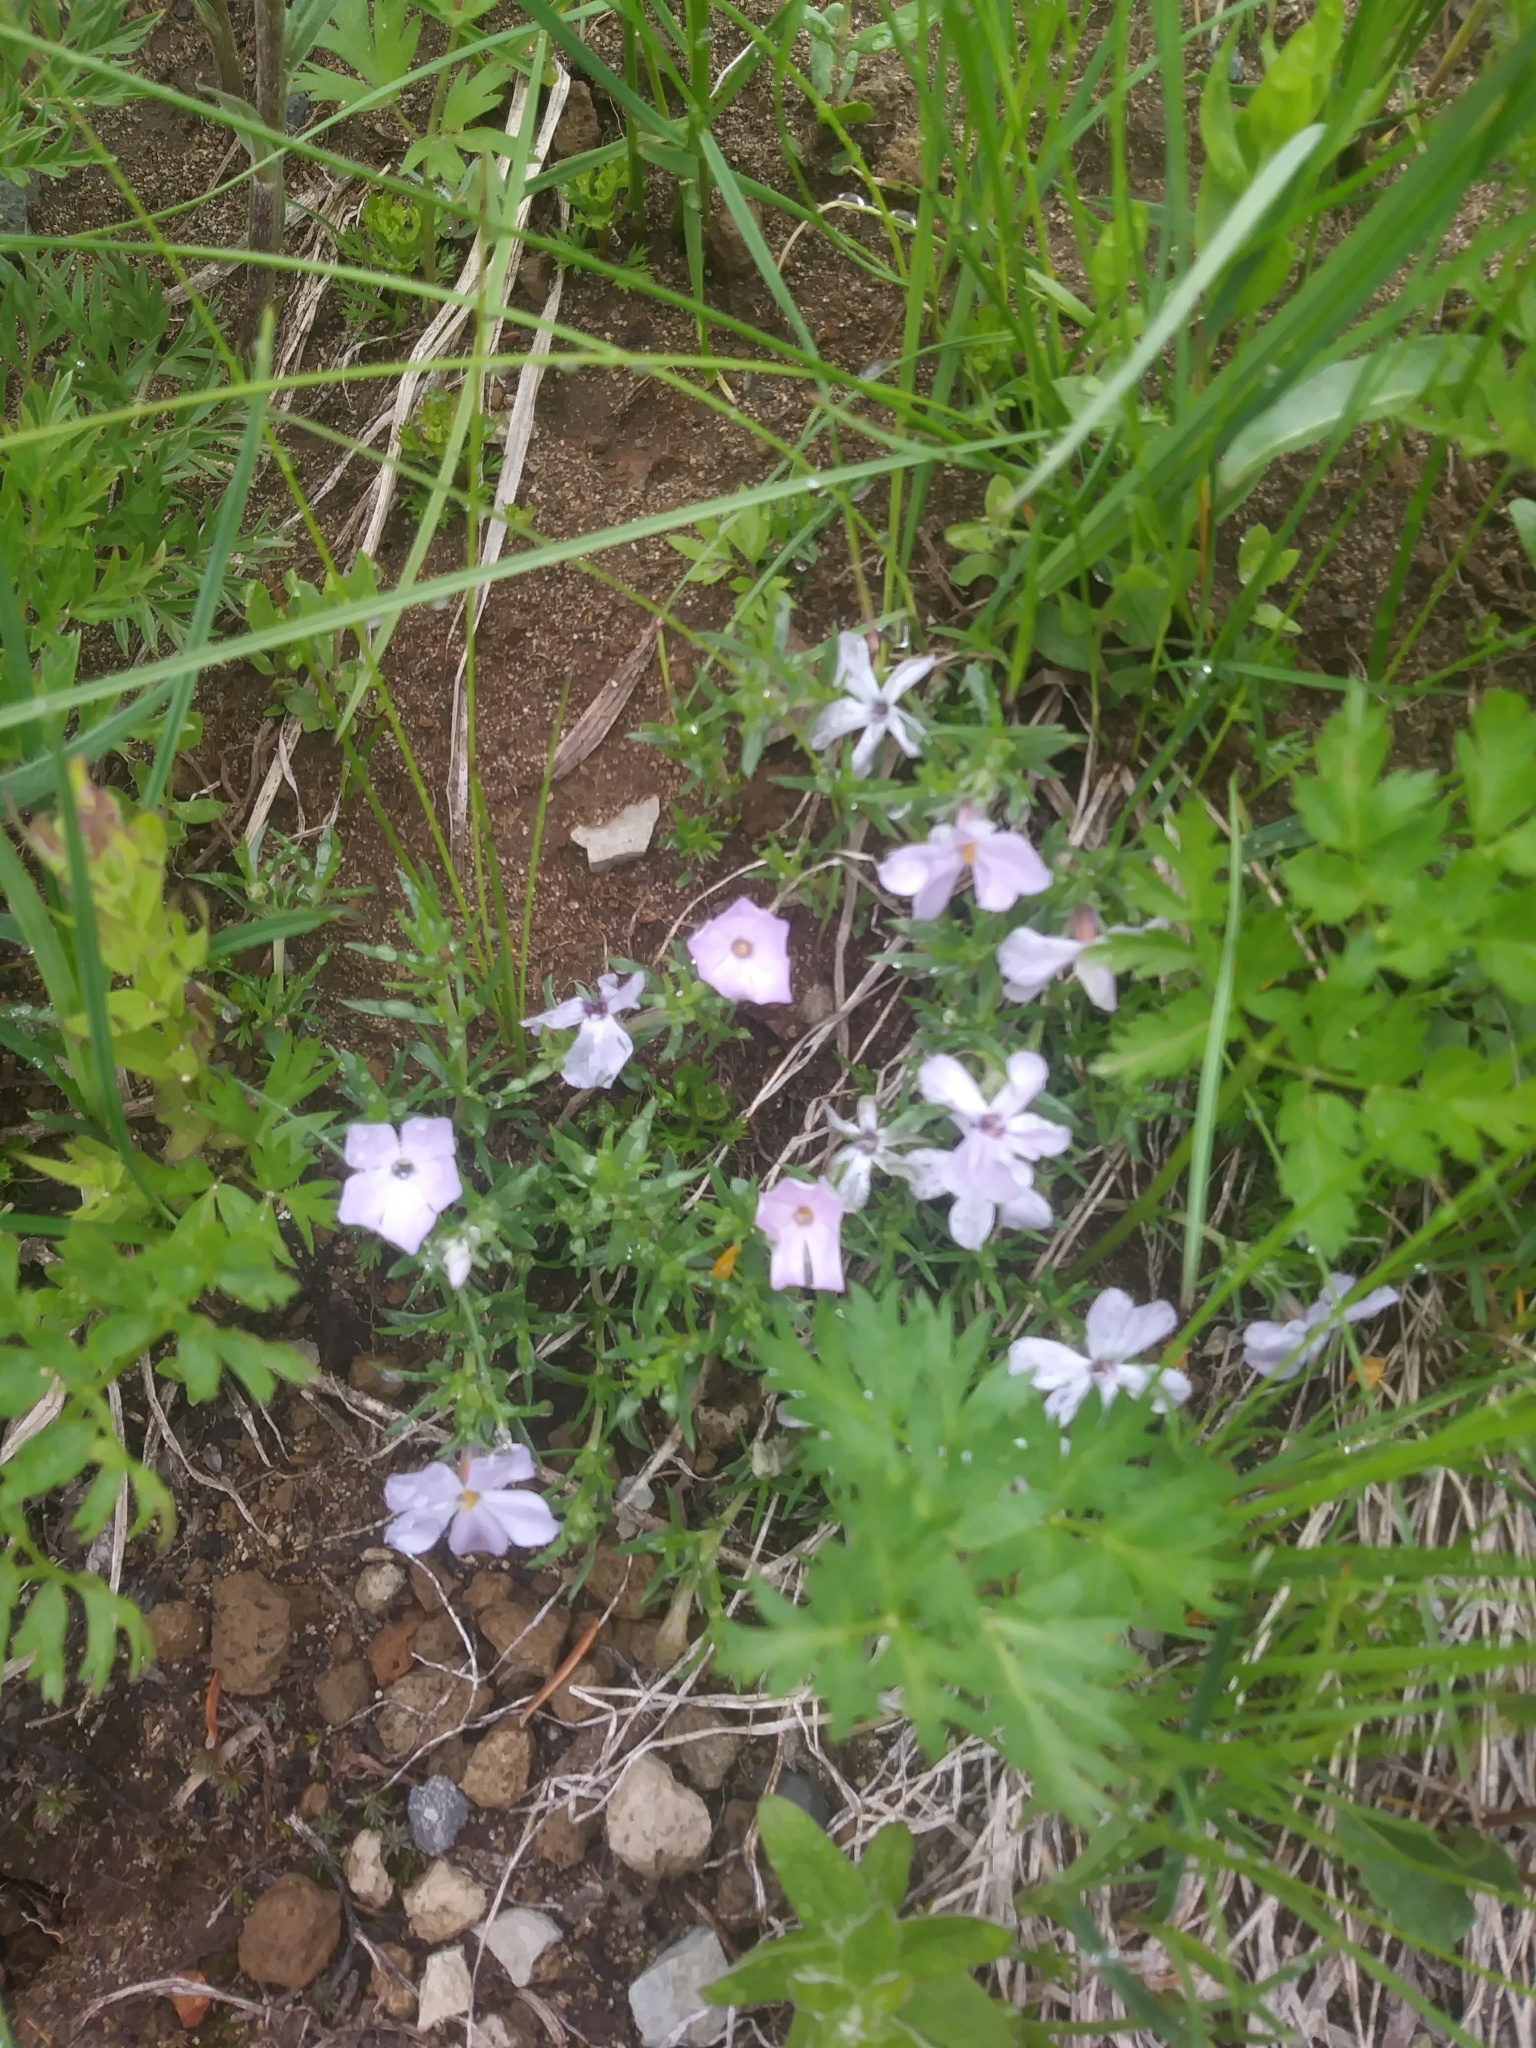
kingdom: Plantae
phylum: Tracheophyta
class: Magnoliopsida
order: Ericales
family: Polemoniaceae
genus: Phlox
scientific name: Phlox diffusa
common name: Mat phlox
